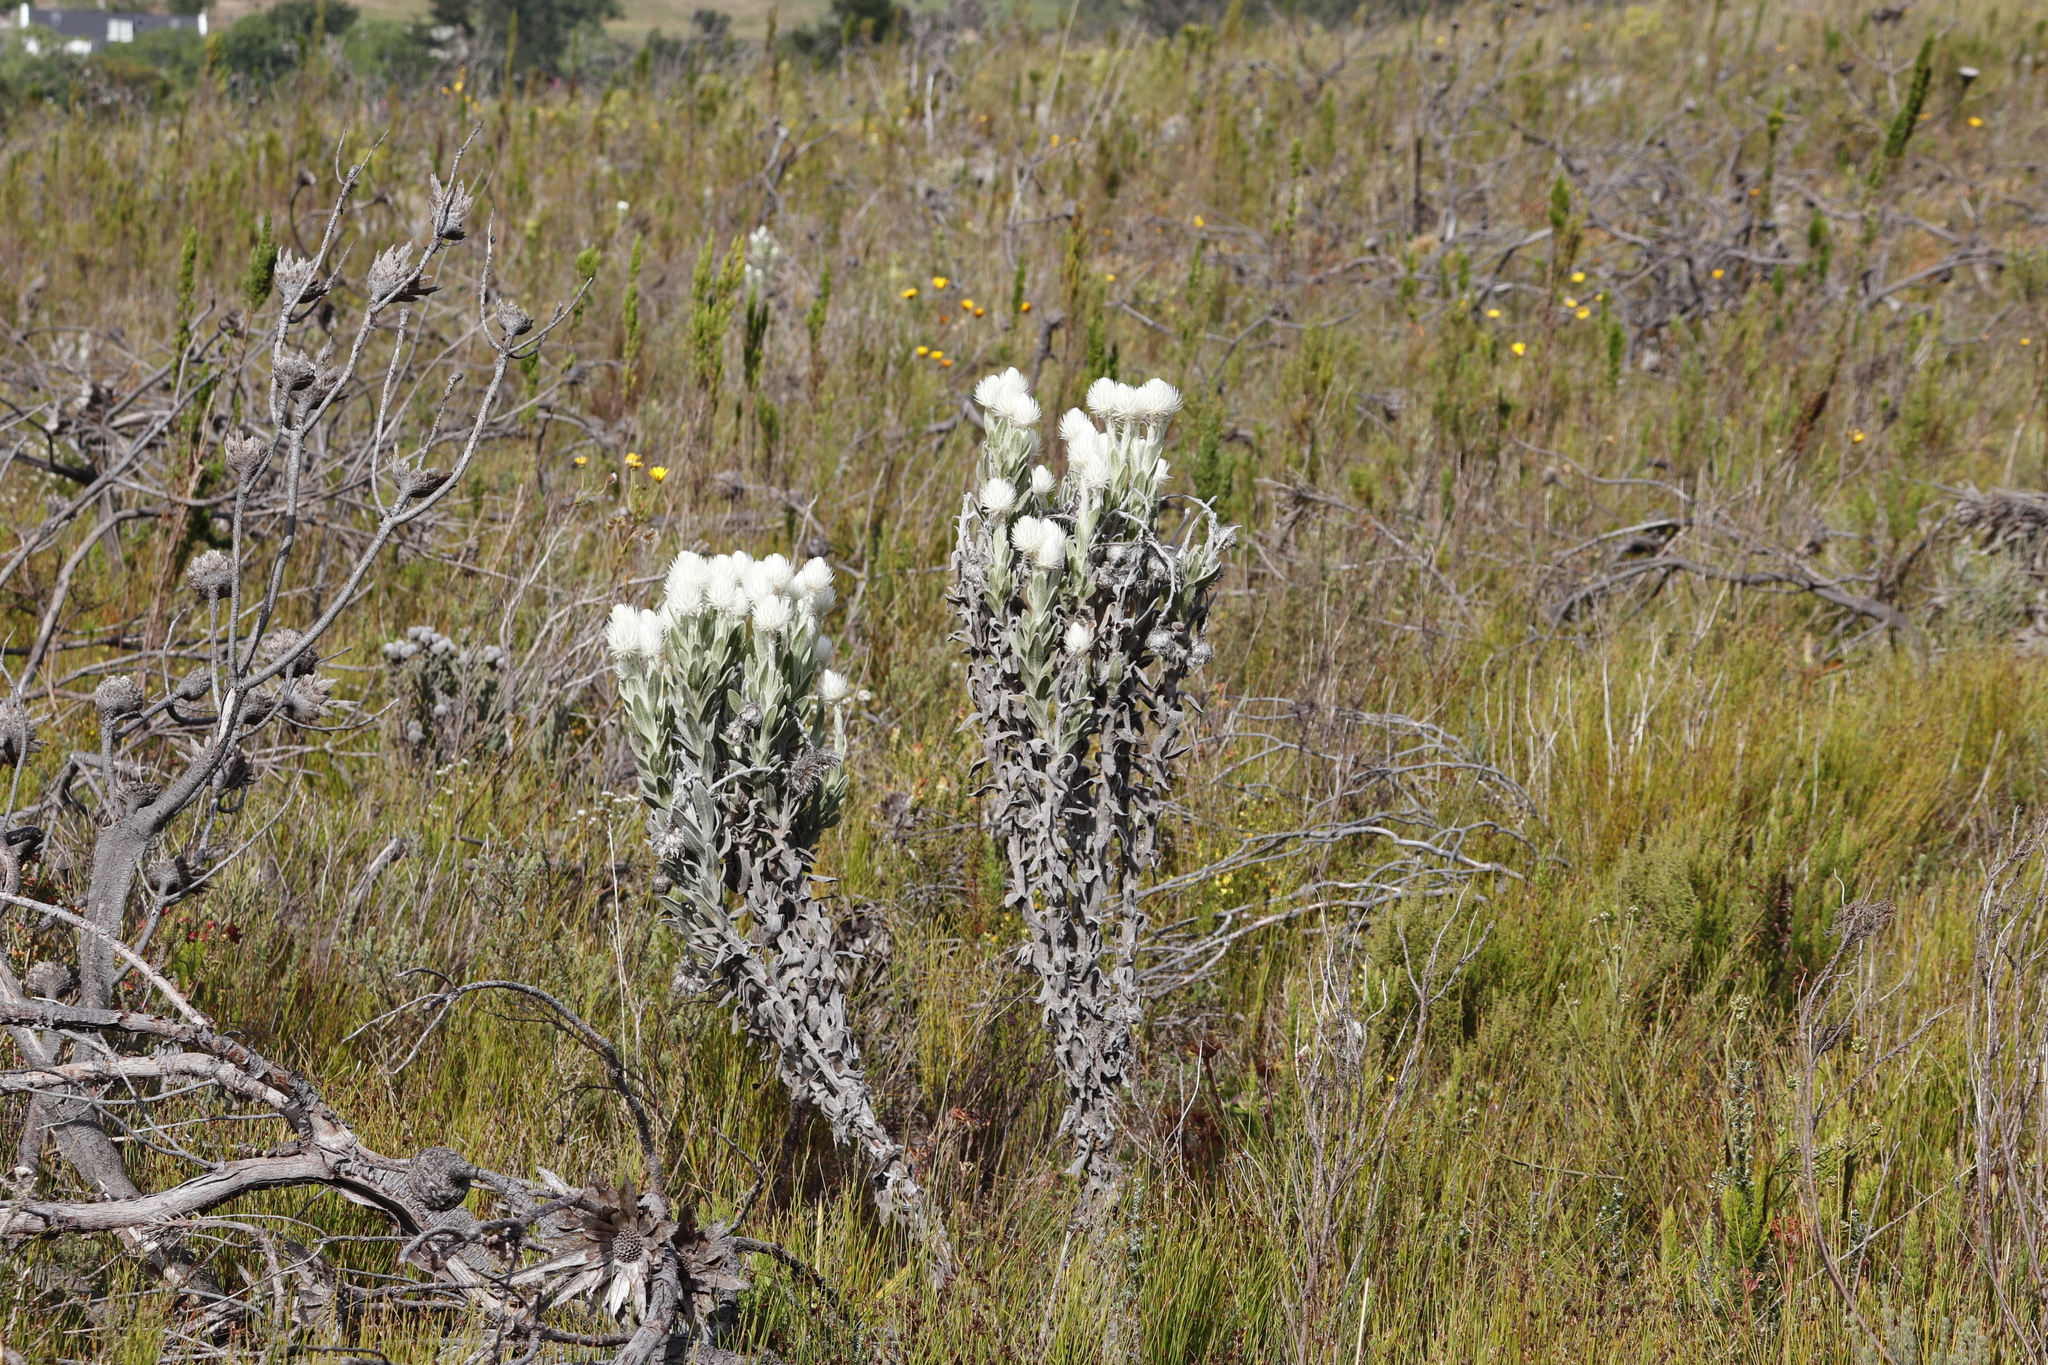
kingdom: Plantae
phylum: Tracheophyta
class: Magnoliopsida
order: Asterales
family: Asteraceae
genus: Syncarpha
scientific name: Syncarpha vestita
